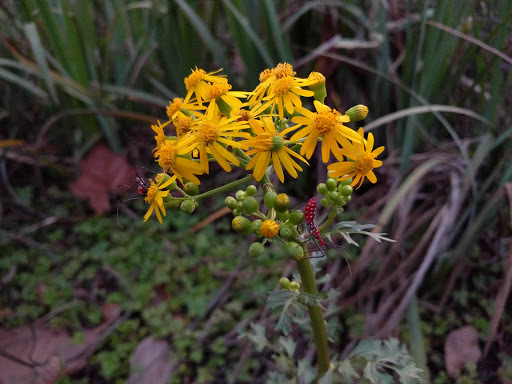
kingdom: Animalia
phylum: Arthropoda
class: Insecta
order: Hemiptera
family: Reduviidae
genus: Zelus
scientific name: Zelus longipes
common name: Milkweed assassin bug
